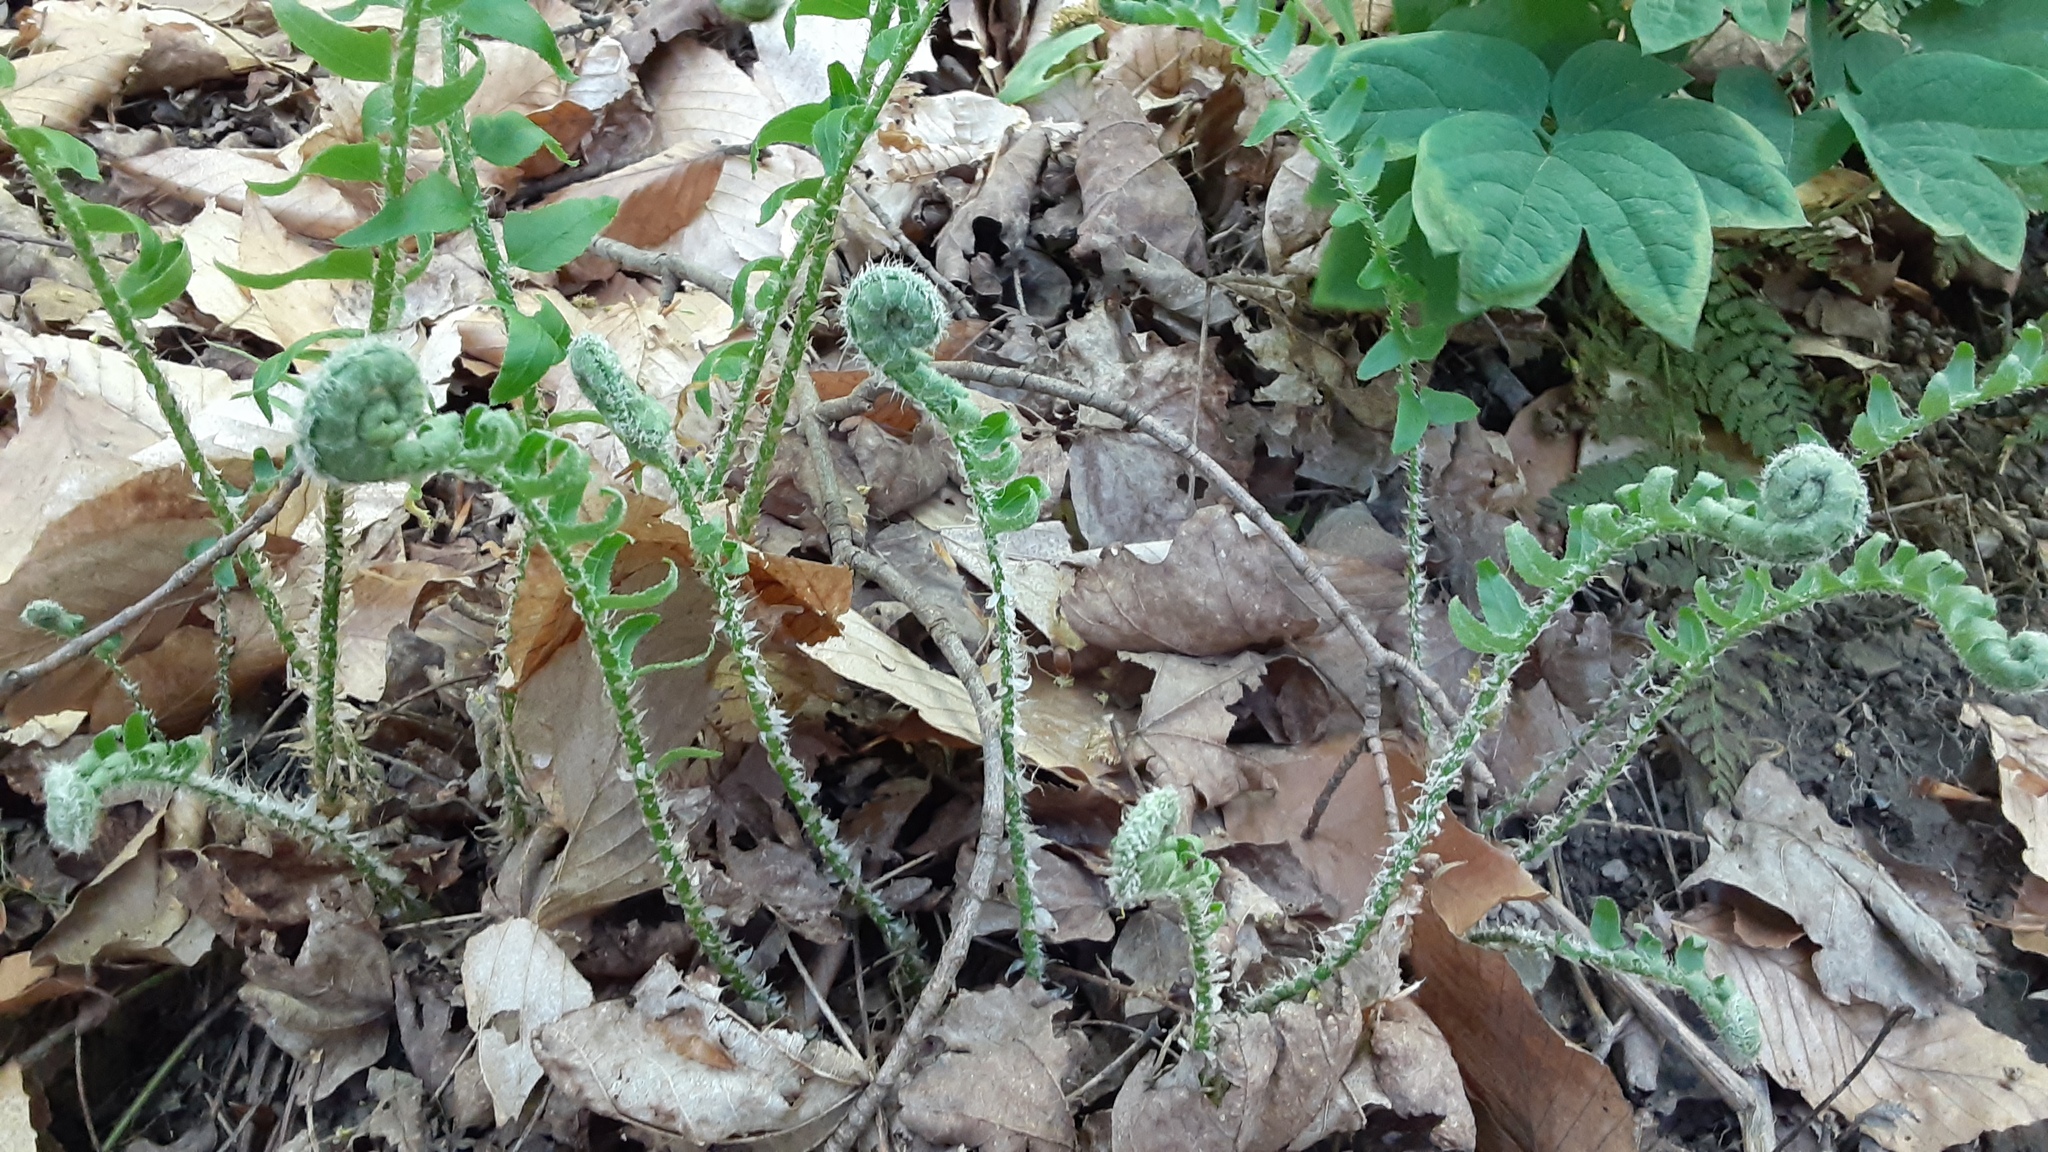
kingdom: Plantae
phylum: Tracheophyta
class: Polypodiopsida
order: Polypodiales
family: Dryopteridaceae
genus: Polystichum
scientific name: Polystichum acrostichoides
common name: Christmas fern
